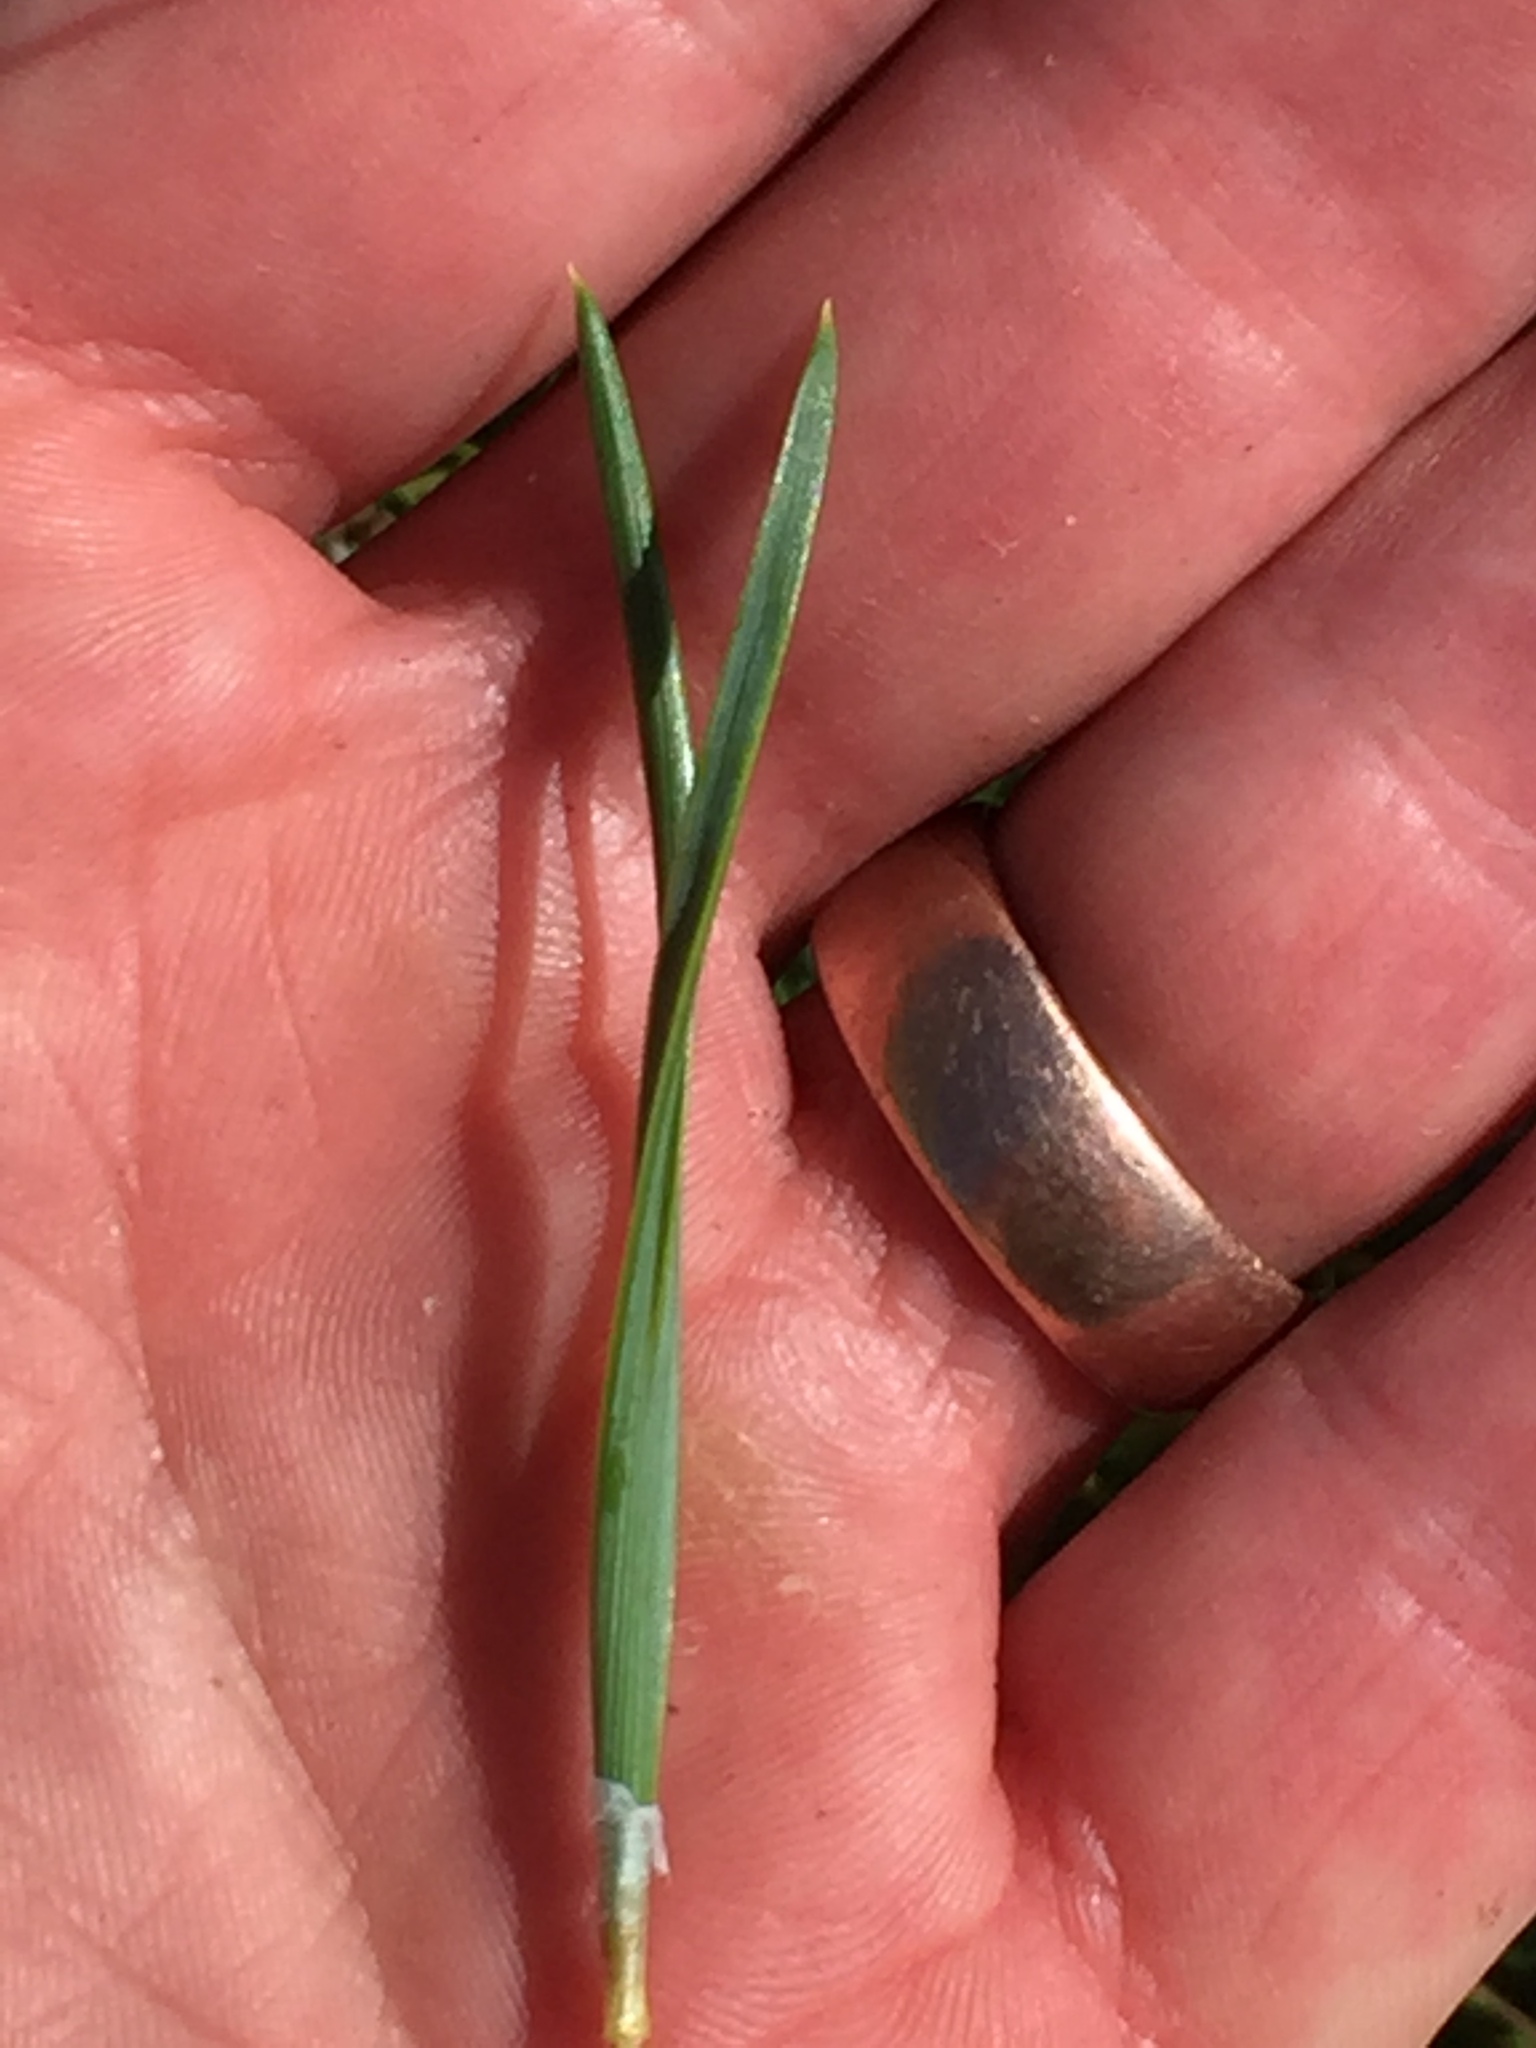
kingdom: Plantae
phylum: Tracheophyta
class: Pinopsida
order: Pinales
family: Pinaceae
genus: Pinus
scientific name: Pinus sylvestris
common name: Scots pine
